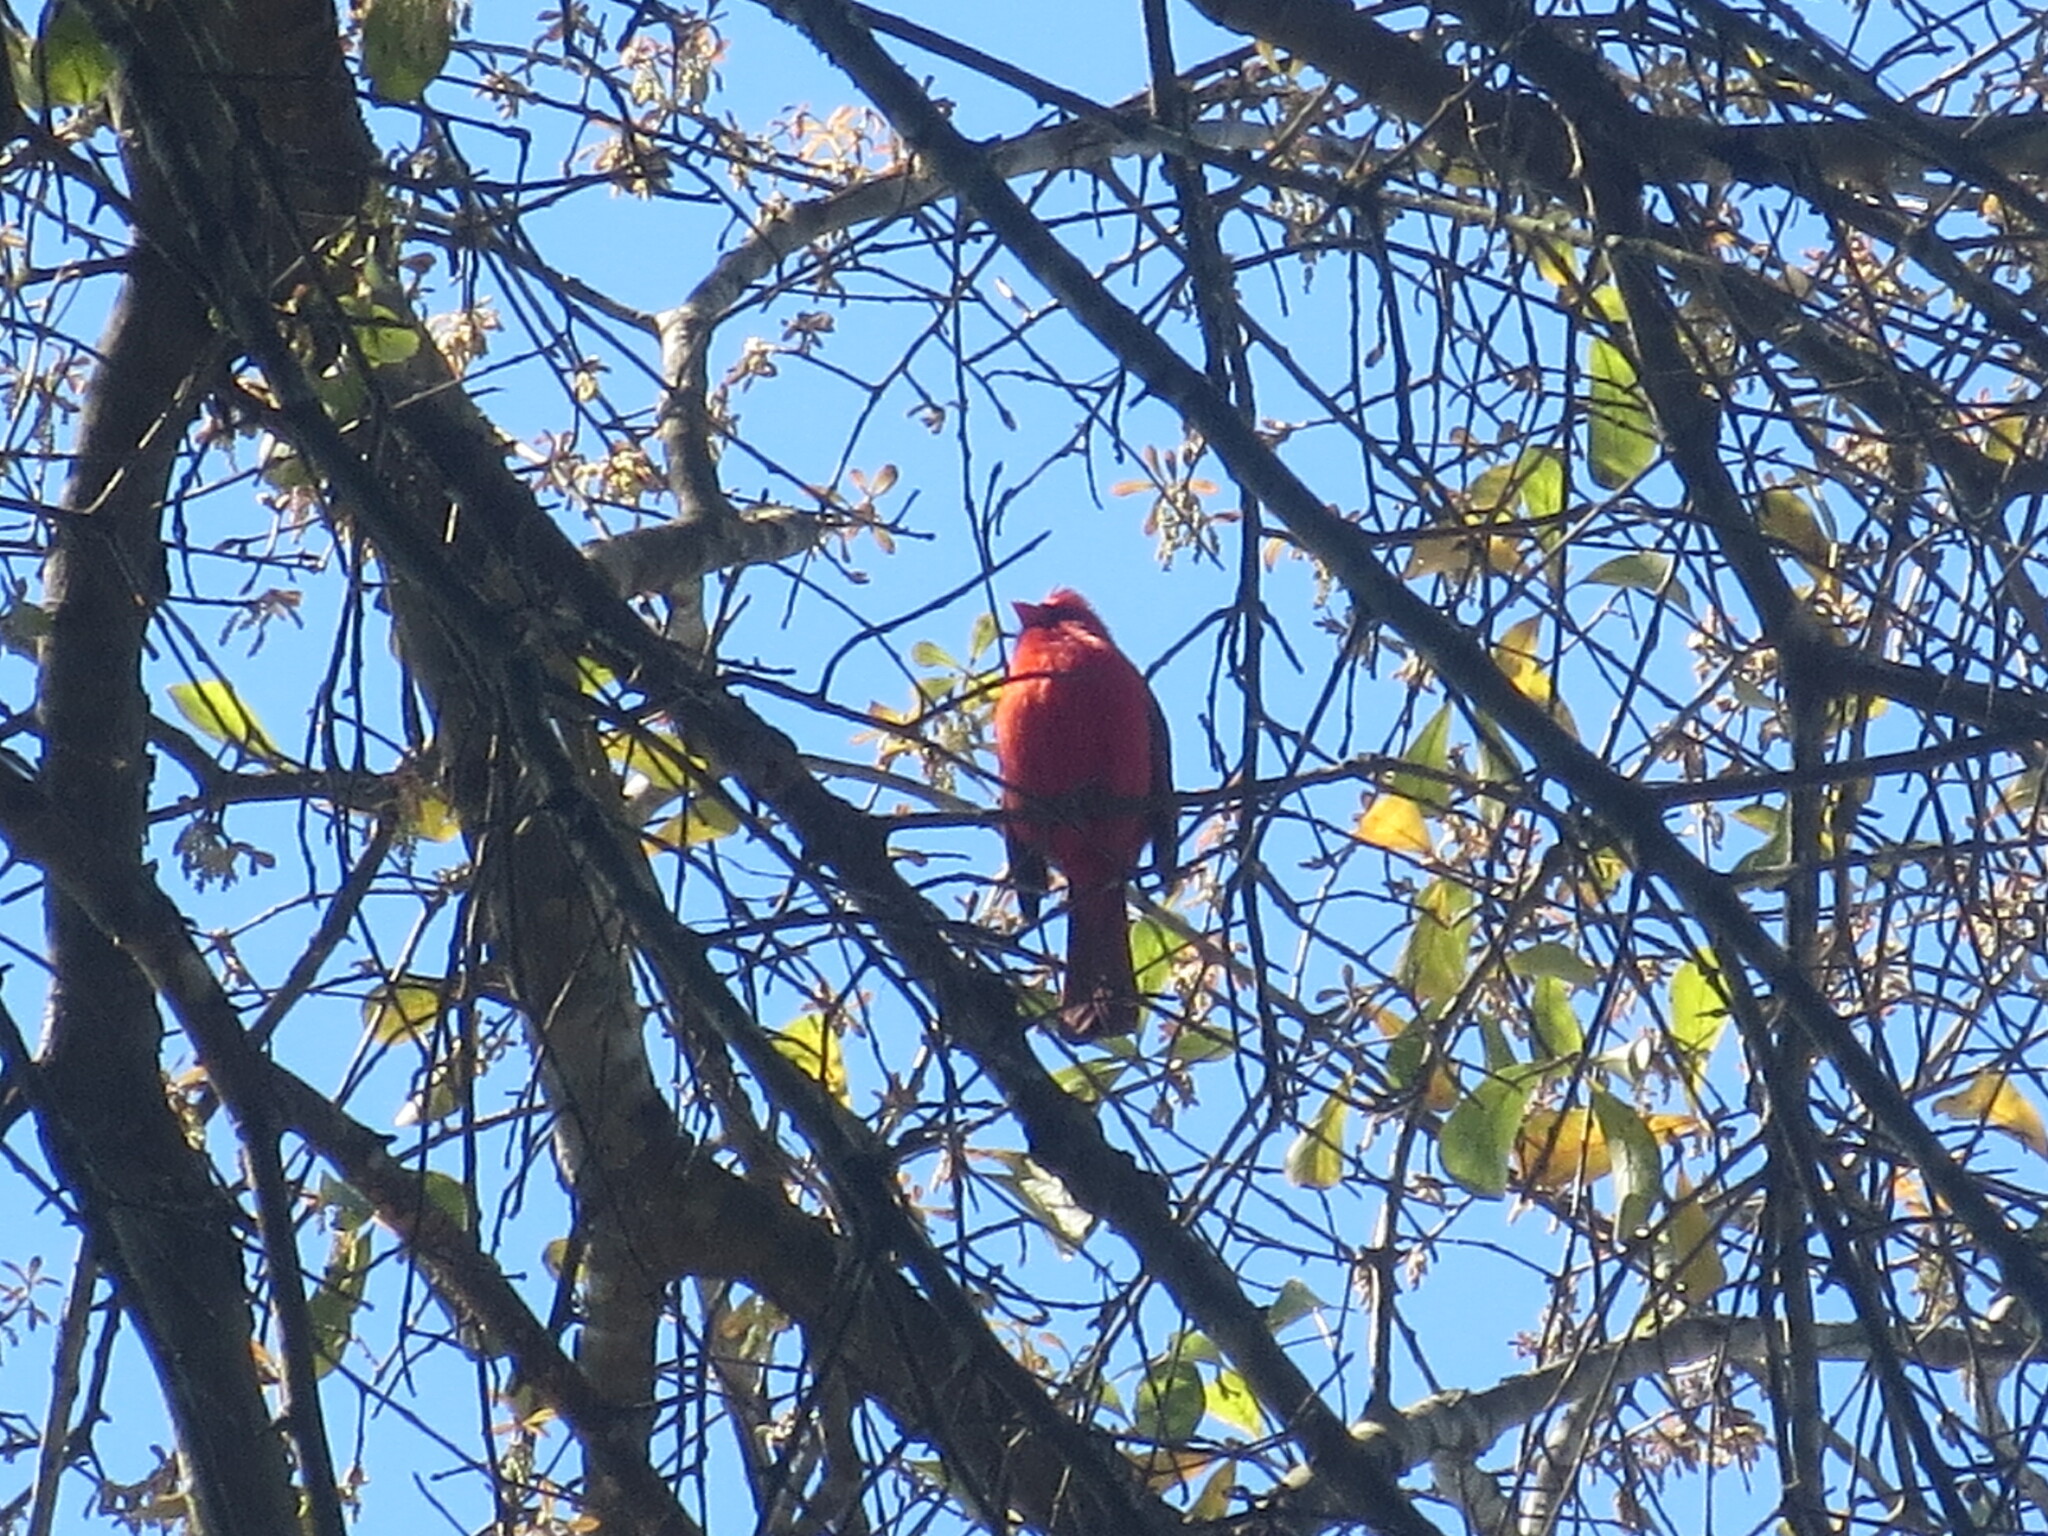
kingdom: Animalia
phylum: Chordata
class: Aves
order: Passeriformes
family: Cardinalidae
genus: Cardinalis
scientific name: Cardinalis cardinalis
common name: Northern cardinal
